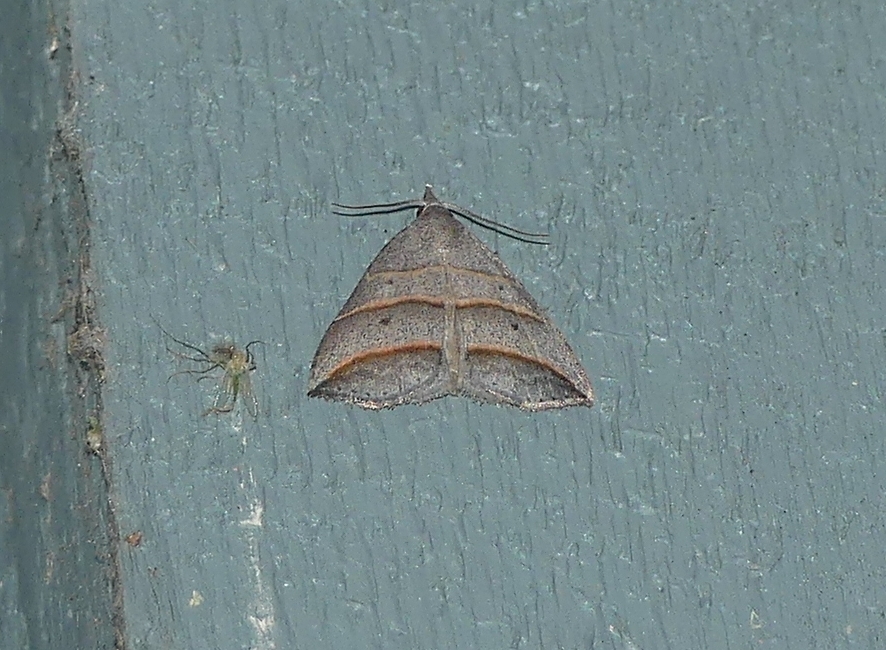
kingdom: Animalia
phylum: Arthropoda
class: Insecta
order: Lepidoptera
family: Erebidae
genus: Colobochyla
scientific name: Colobochyla interpuncta
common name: Yellow-lined owlet
